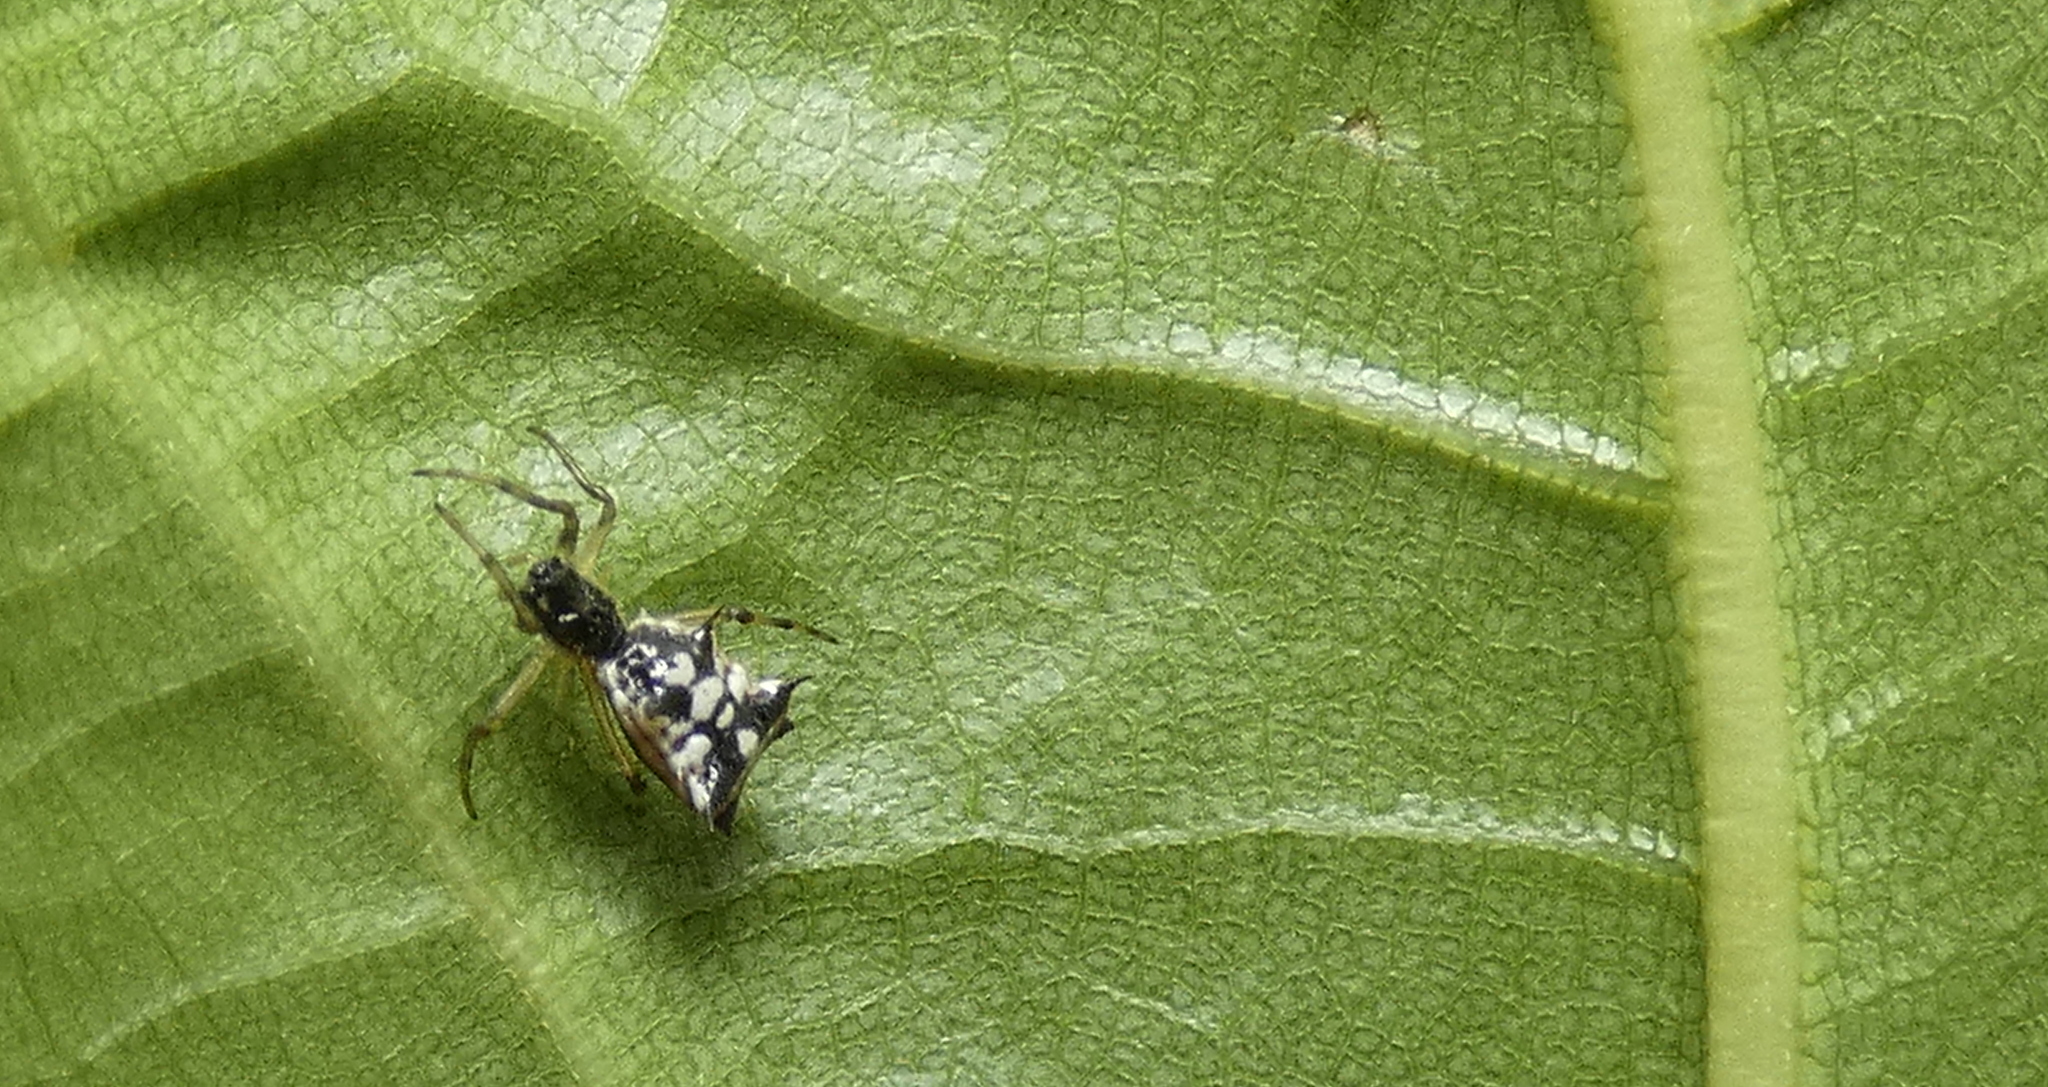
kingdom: Animalia
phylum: Arthropoda
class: Arachnida
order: Araneae
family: Araneidae
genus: Micrathena
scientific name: Micrathena picta
